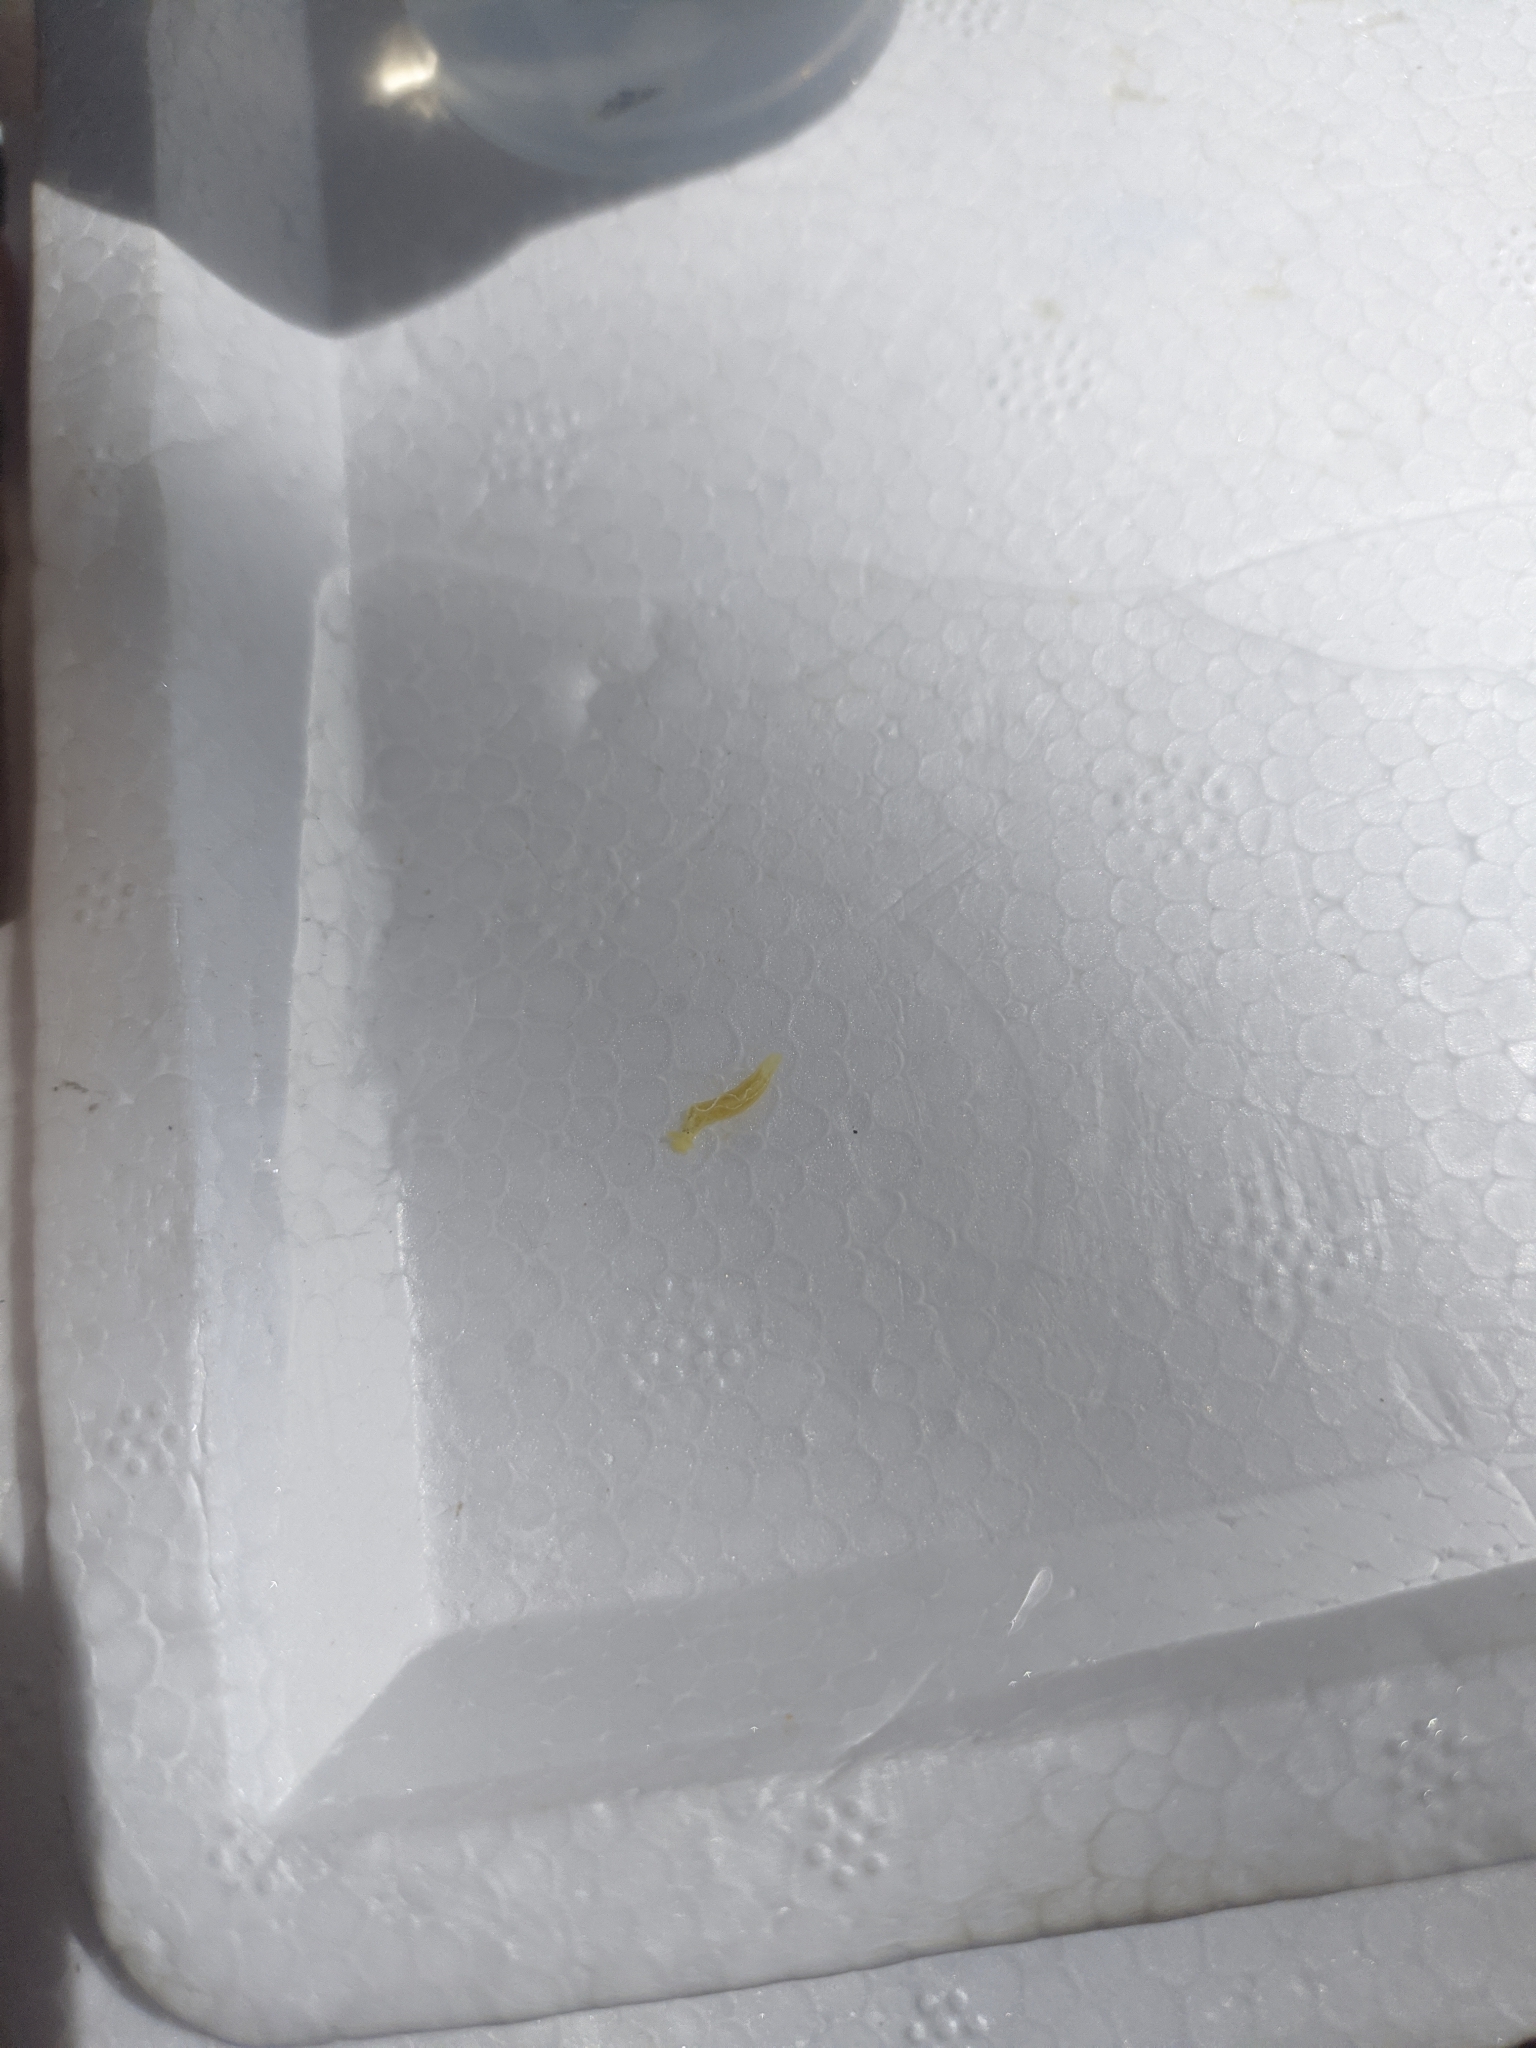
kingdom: Animalia
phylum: Mollusca
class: Gastropoda
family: Plakobranchidae
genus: Elysia
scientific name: Elysia flava
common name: Yellow elysia
